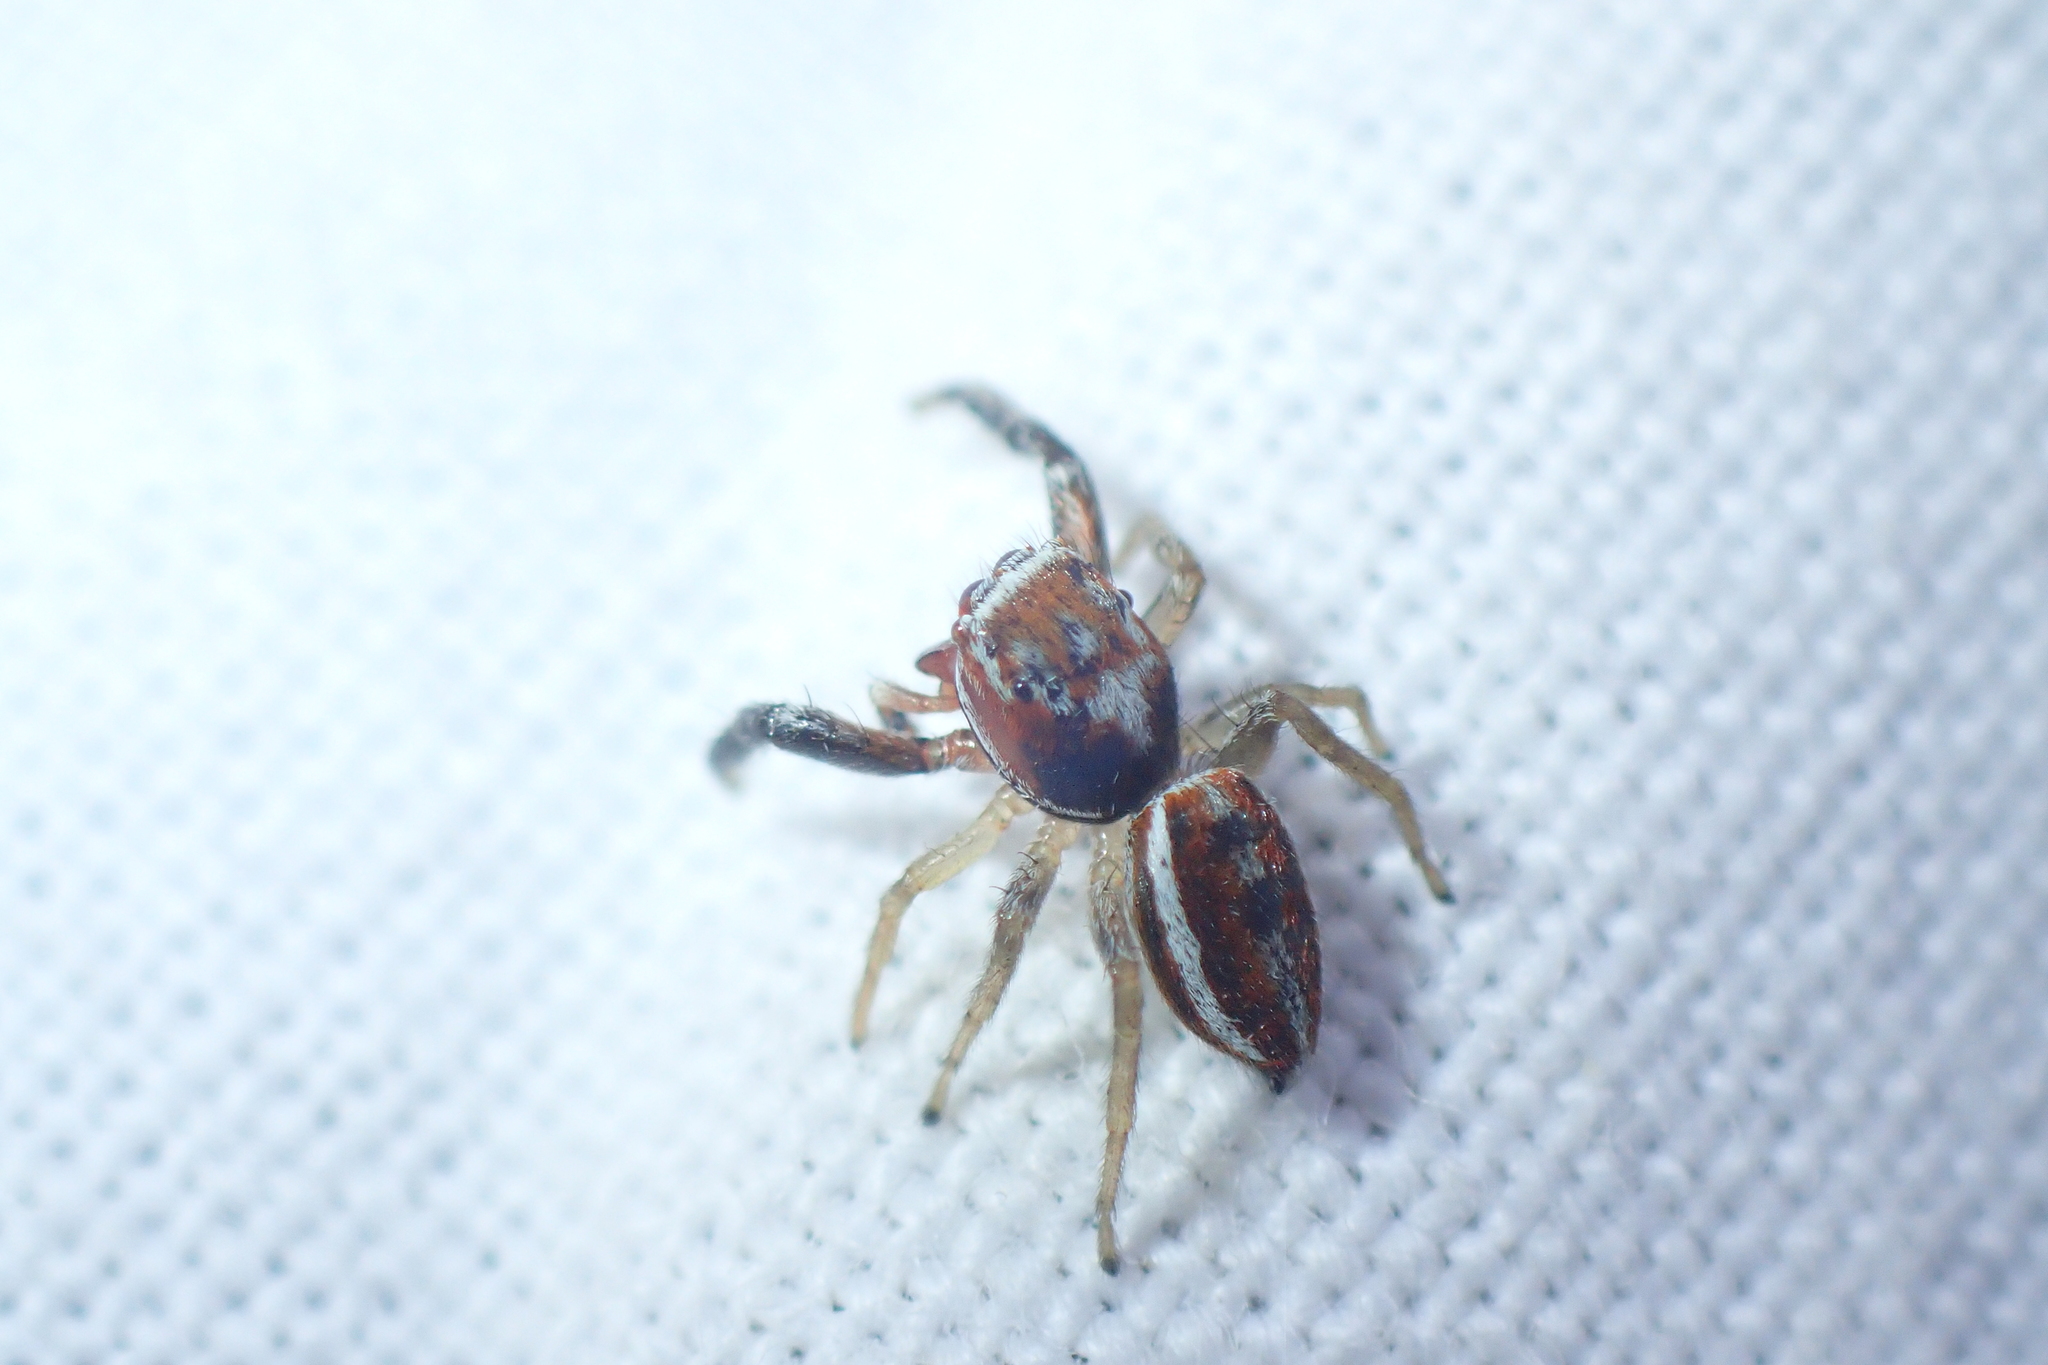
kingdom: Animalia
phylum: Arthropoda
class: Arachnida
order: Araneae
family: Salticidae
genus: Icius
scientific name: Icius hamatus
